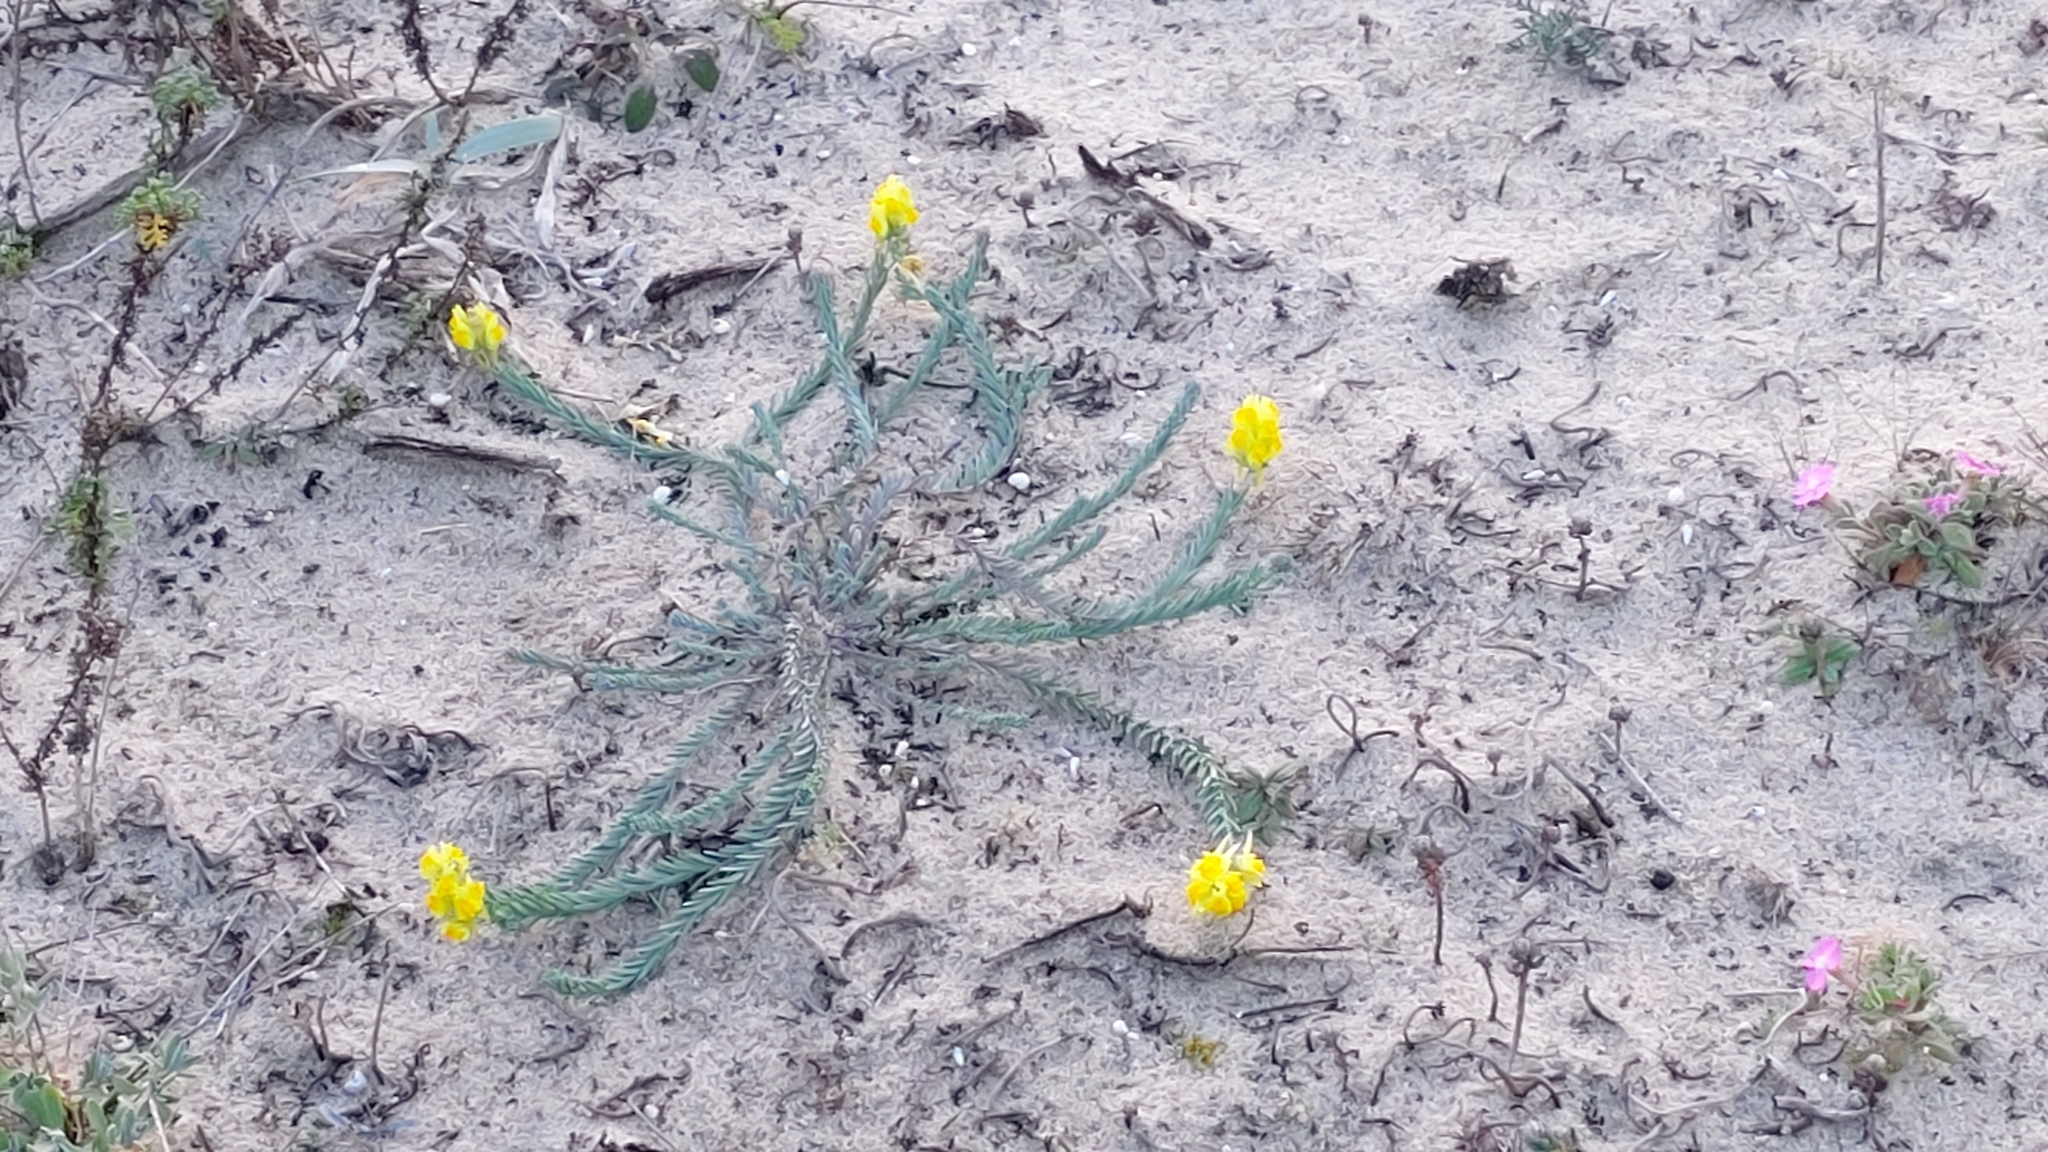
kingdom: Plantae
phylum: Tracheophyta
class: Magnoliopsida
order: Lamiales
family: Plantaginaceae
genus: Linaria
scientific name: Linaria polygalifolia
